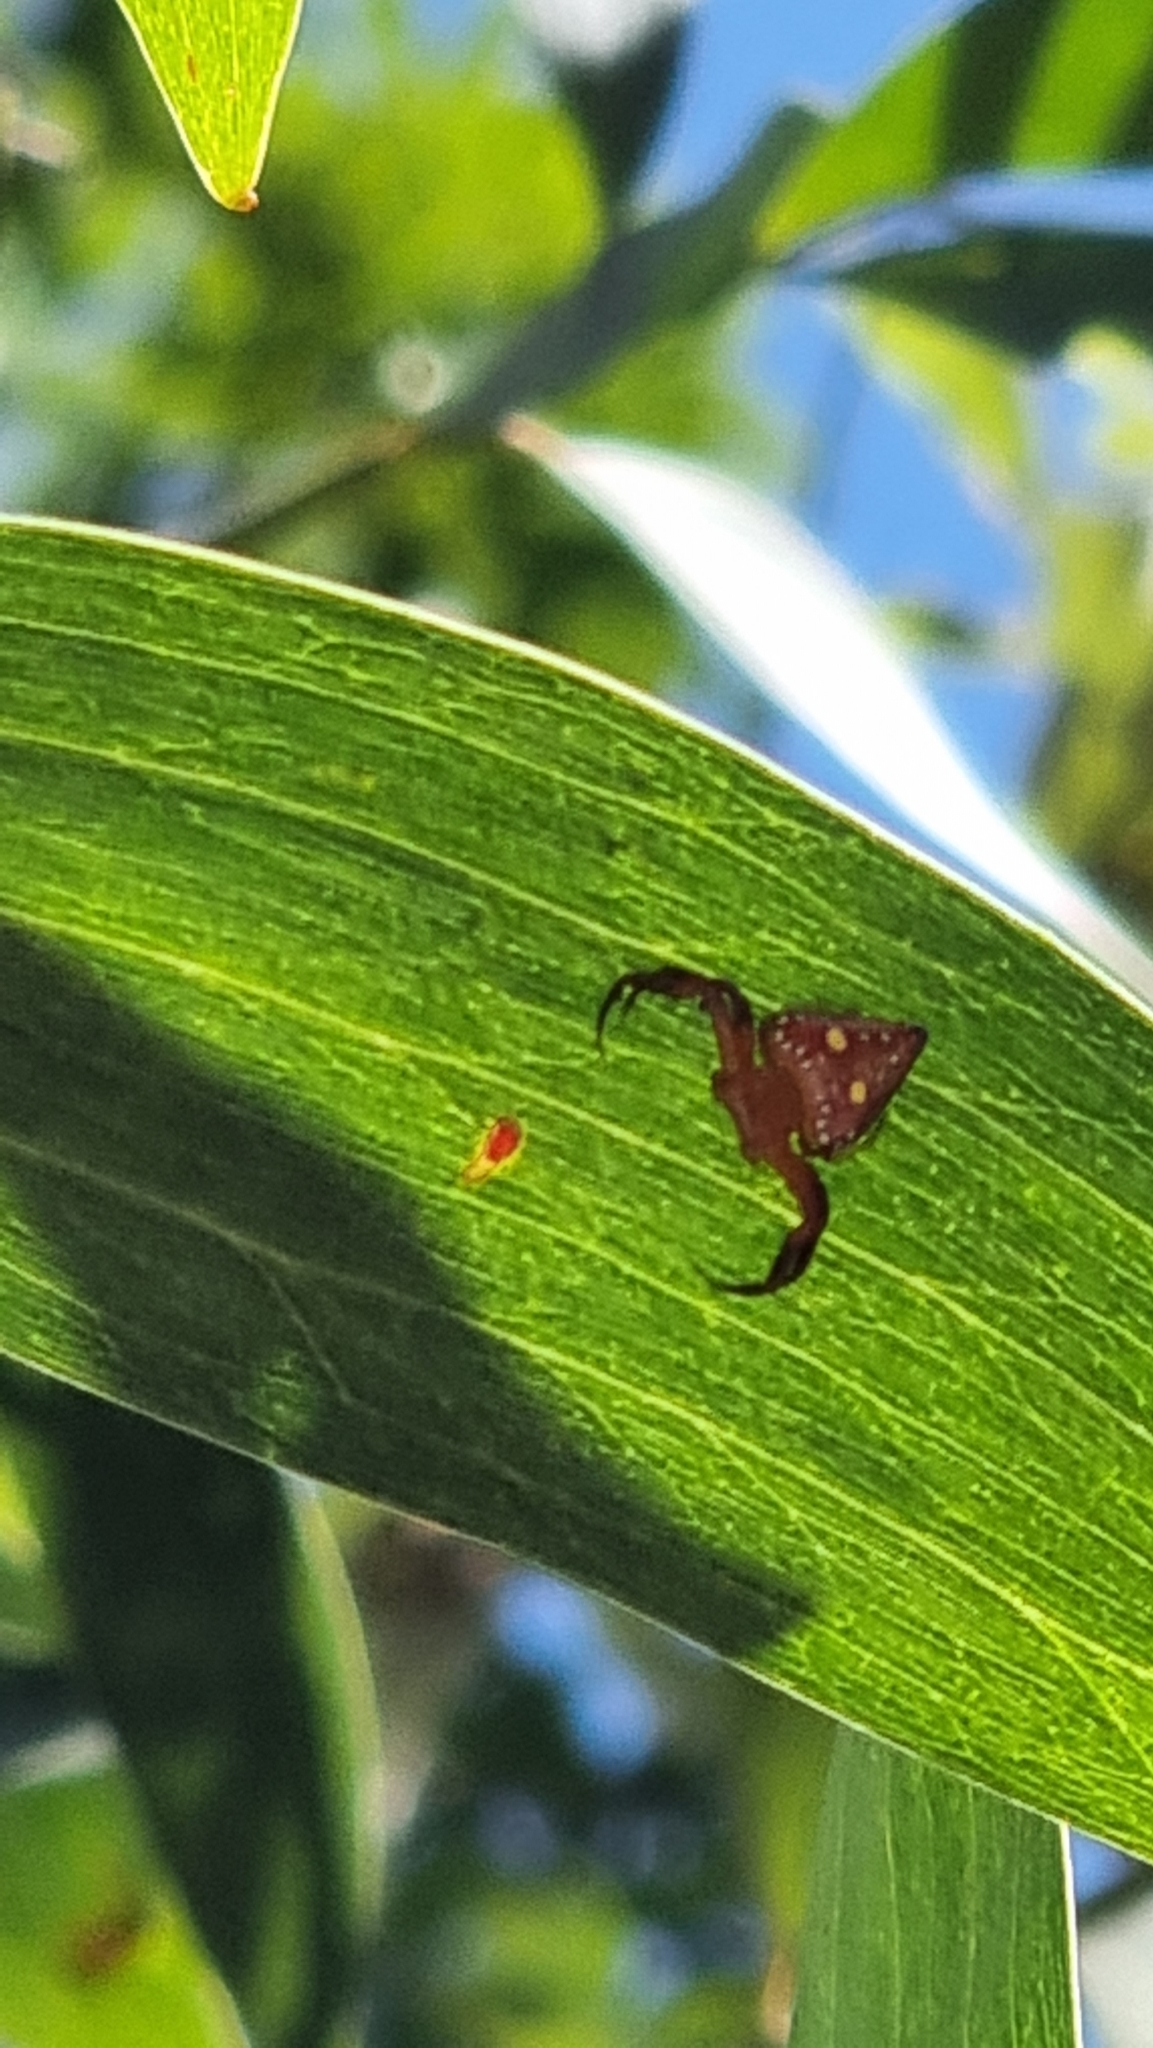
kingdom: Animalia
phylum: Arthropoda
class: Arachnida
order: Araneae
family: Arkyidae
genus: Arkys
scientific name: Arkys lancearius
